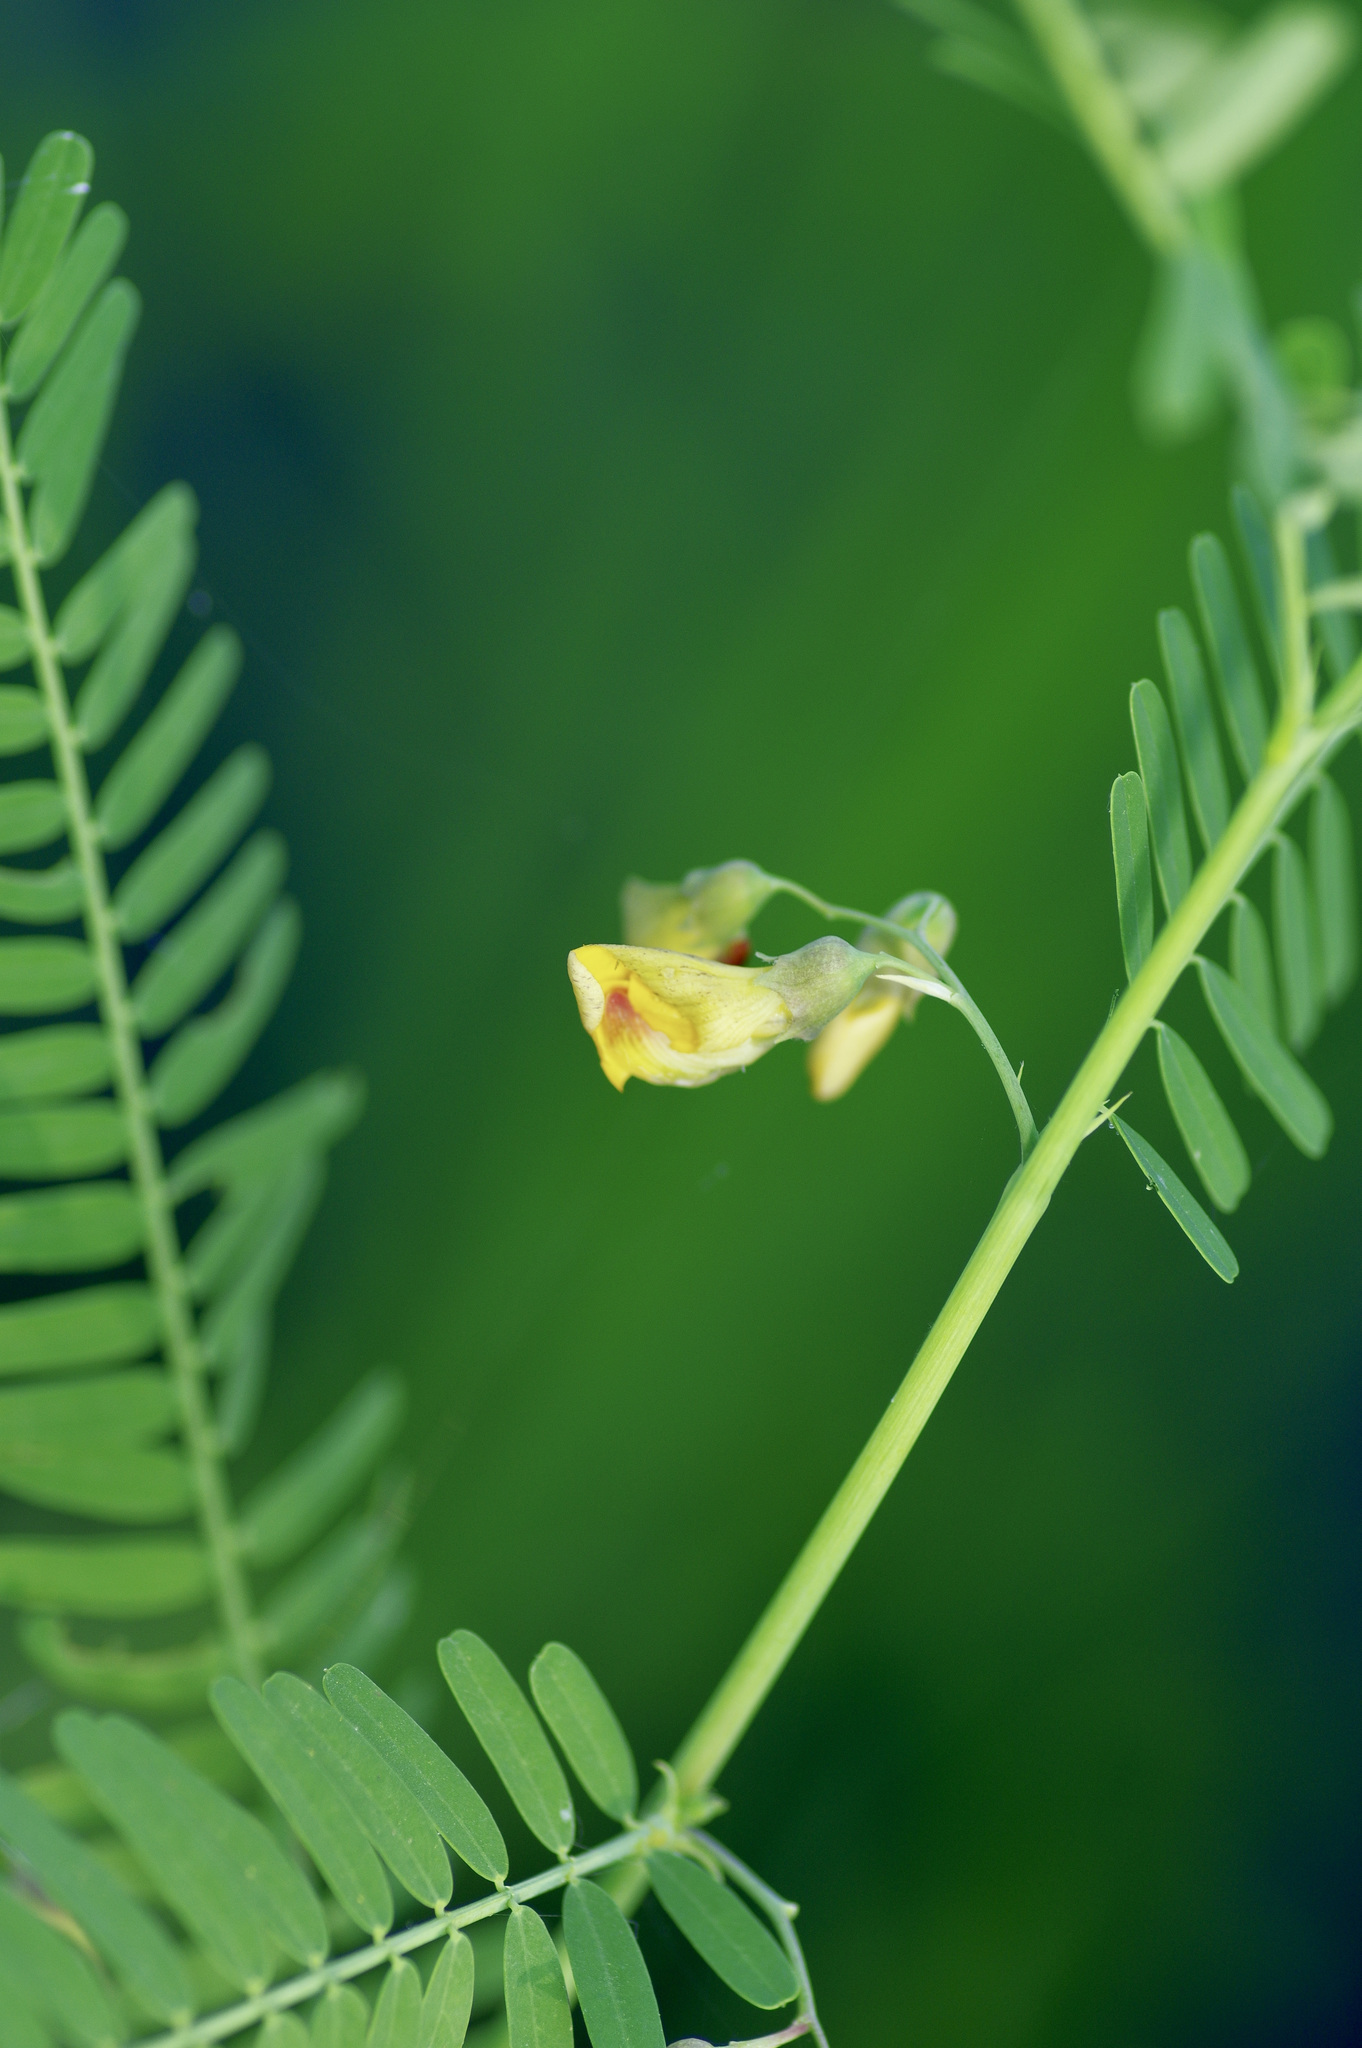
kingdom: Plantae
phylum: Tracheophyta
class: Magnoliopsida
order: Fabales
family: Fabaceae
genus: Sesbania
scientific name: Sesbania herbacea
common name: Bigpod sesbania
